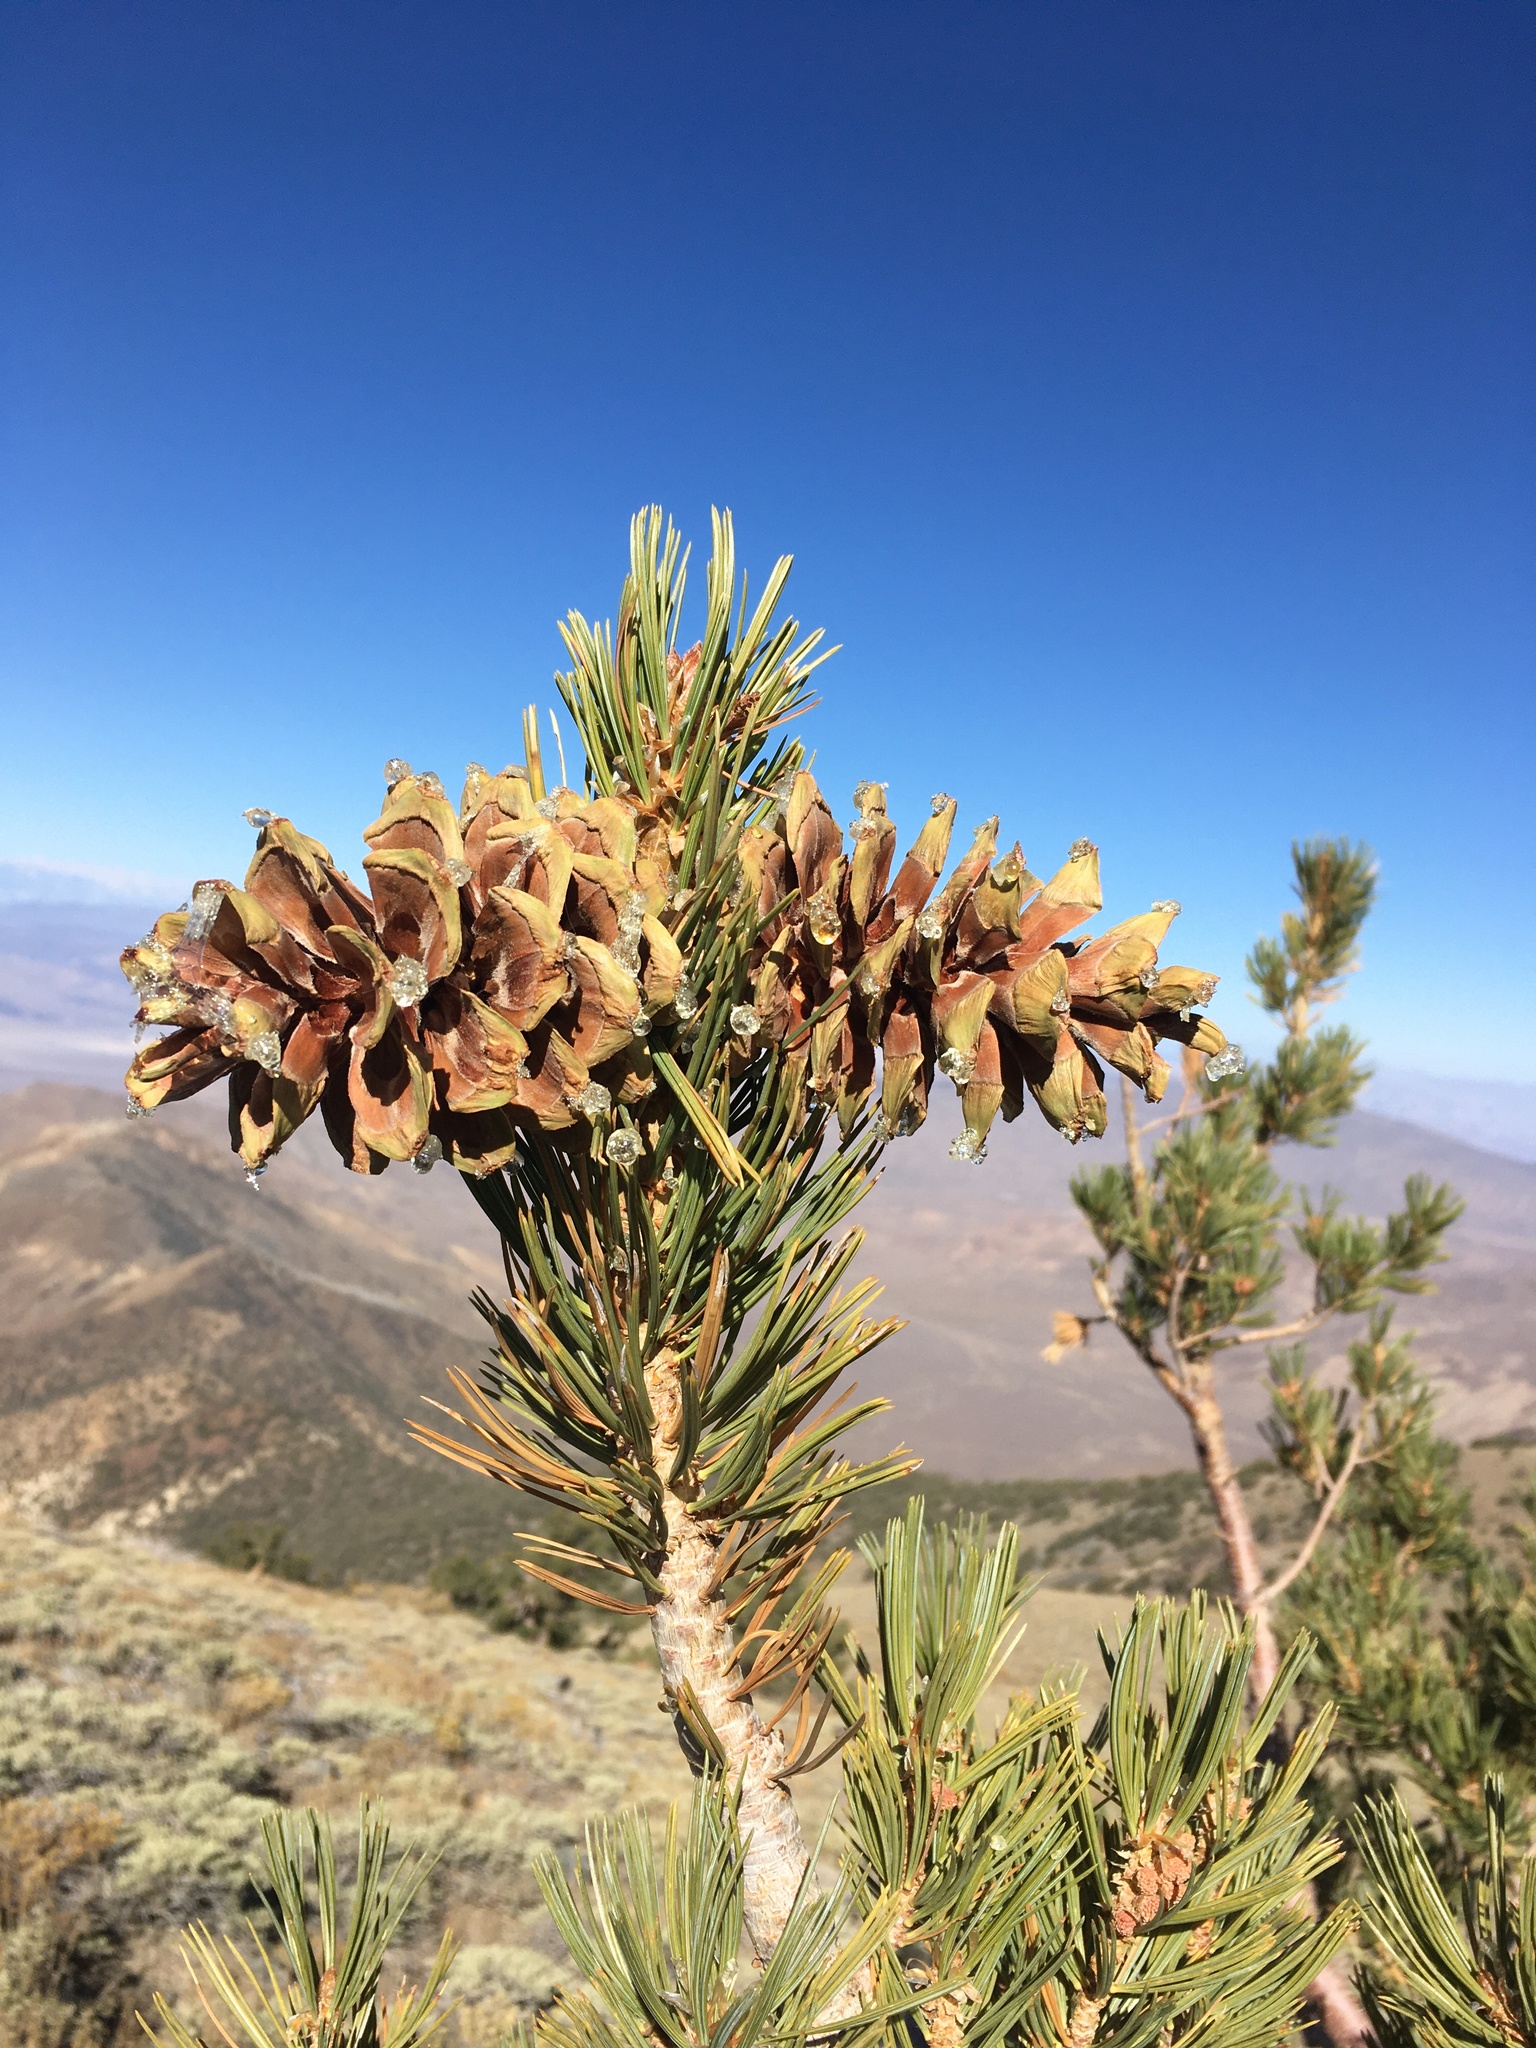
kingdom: Plantae
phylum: Tracheophyta
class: Pinopsida
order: Pinales
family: Pinaceae
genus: Pinus
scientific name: Pinus flexilis
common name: Limber pine
